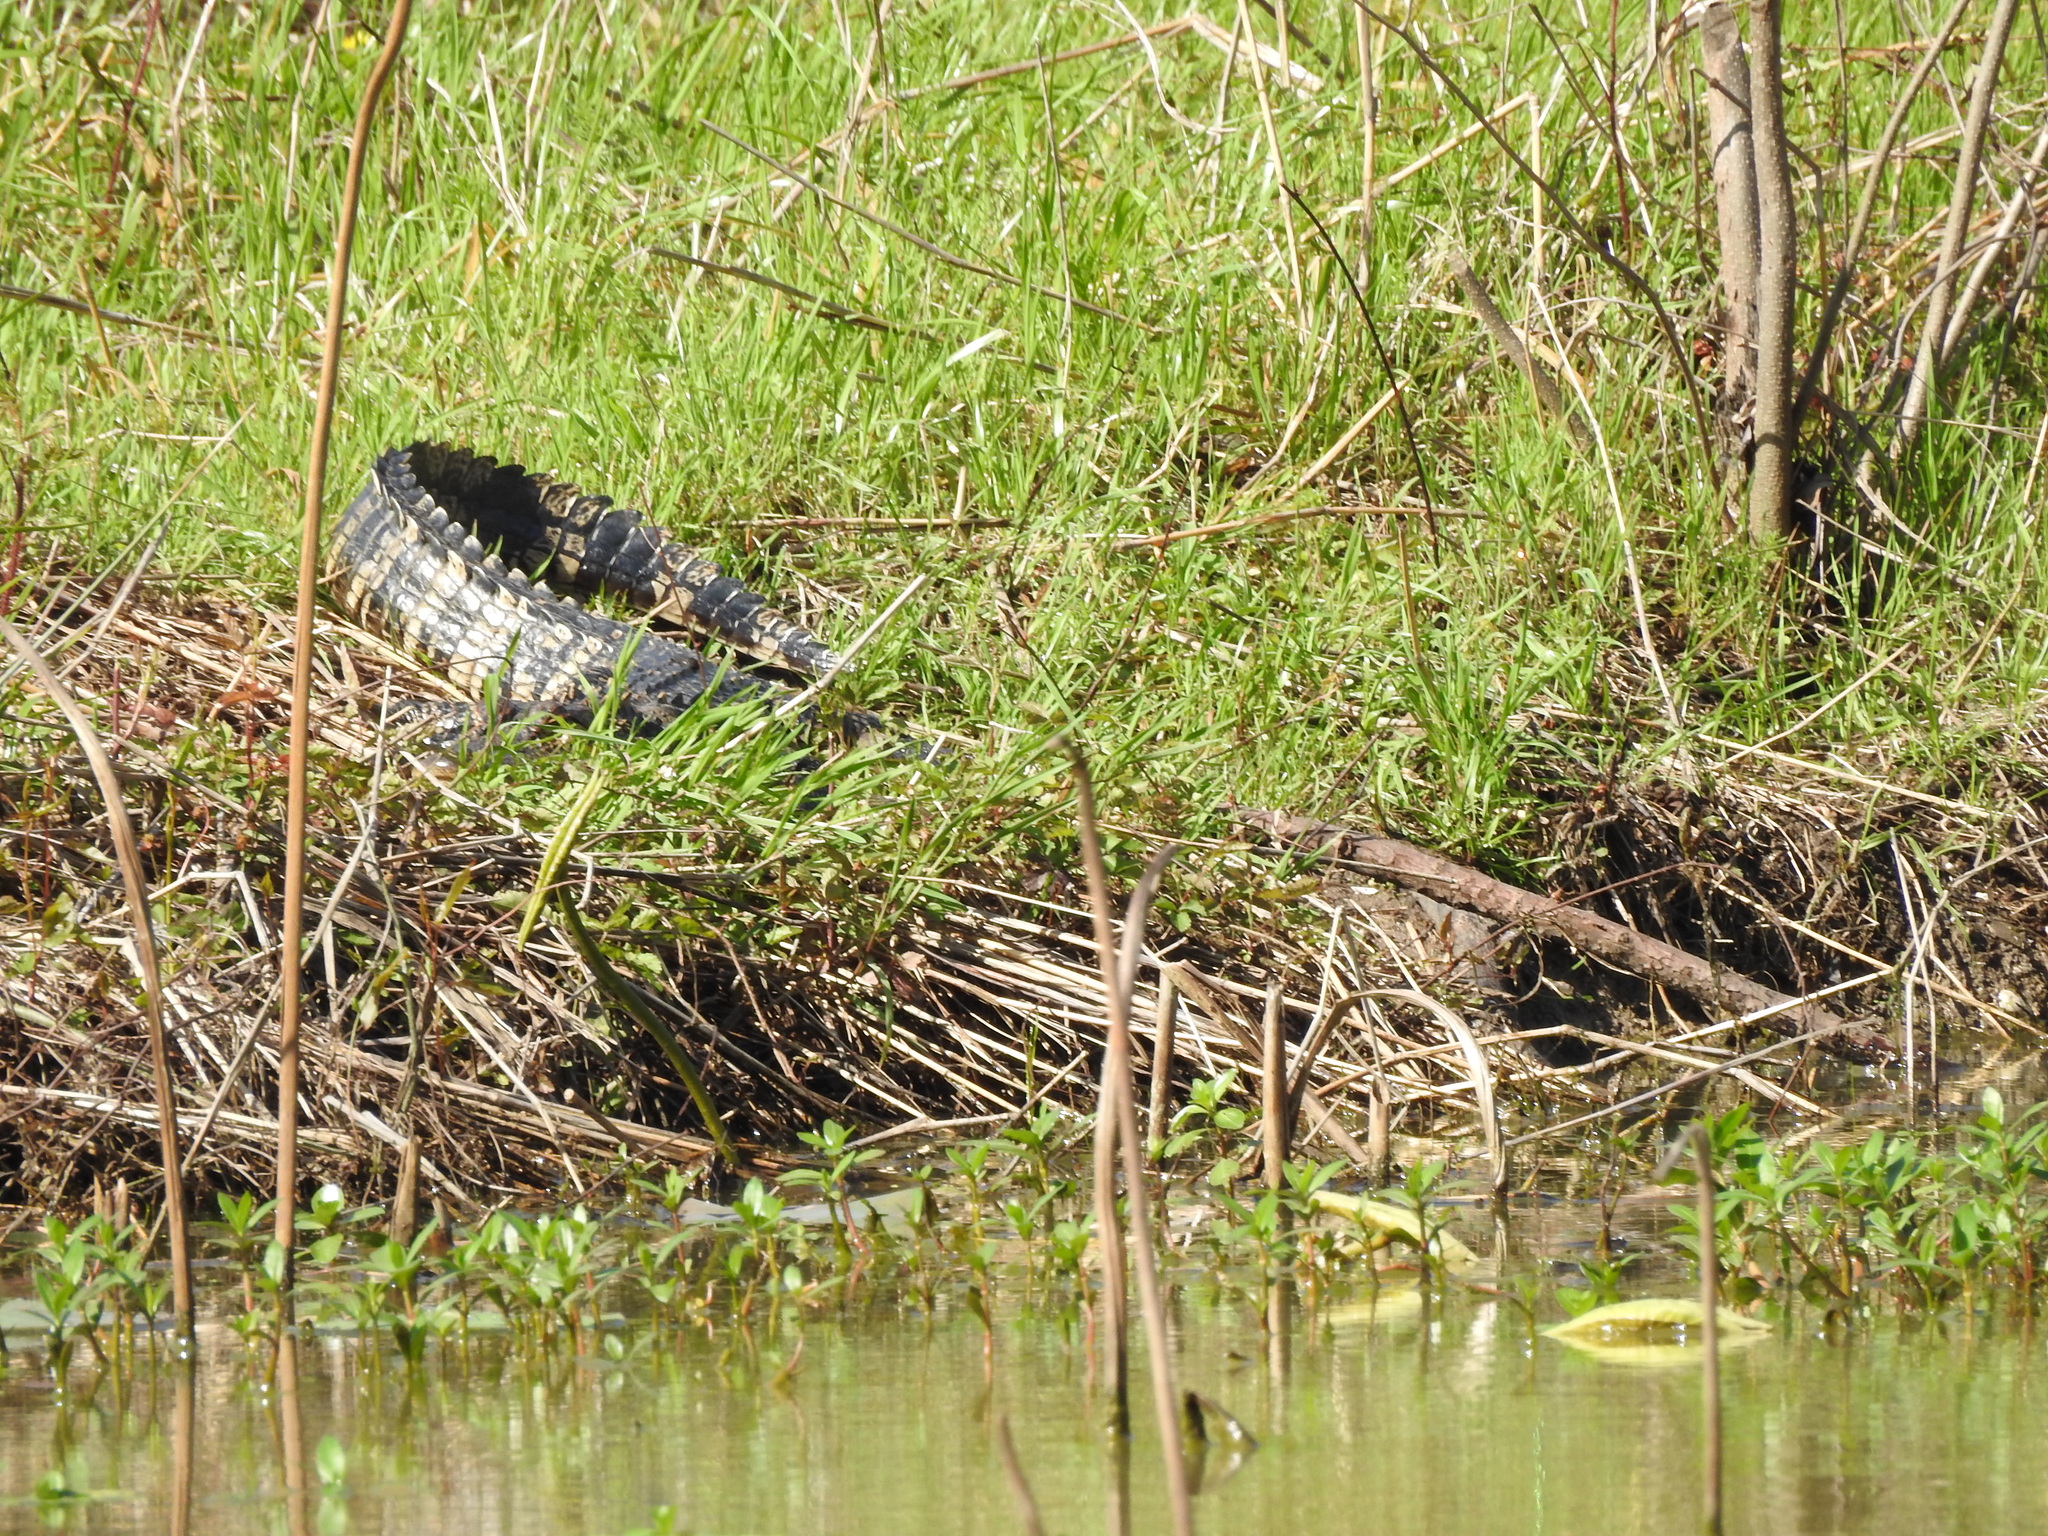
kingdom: Animalia
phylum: Chordata
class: Crocodylia
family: Alligatoridae
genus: Alligator
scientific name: Alligator mississippiensis
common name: American alligator
